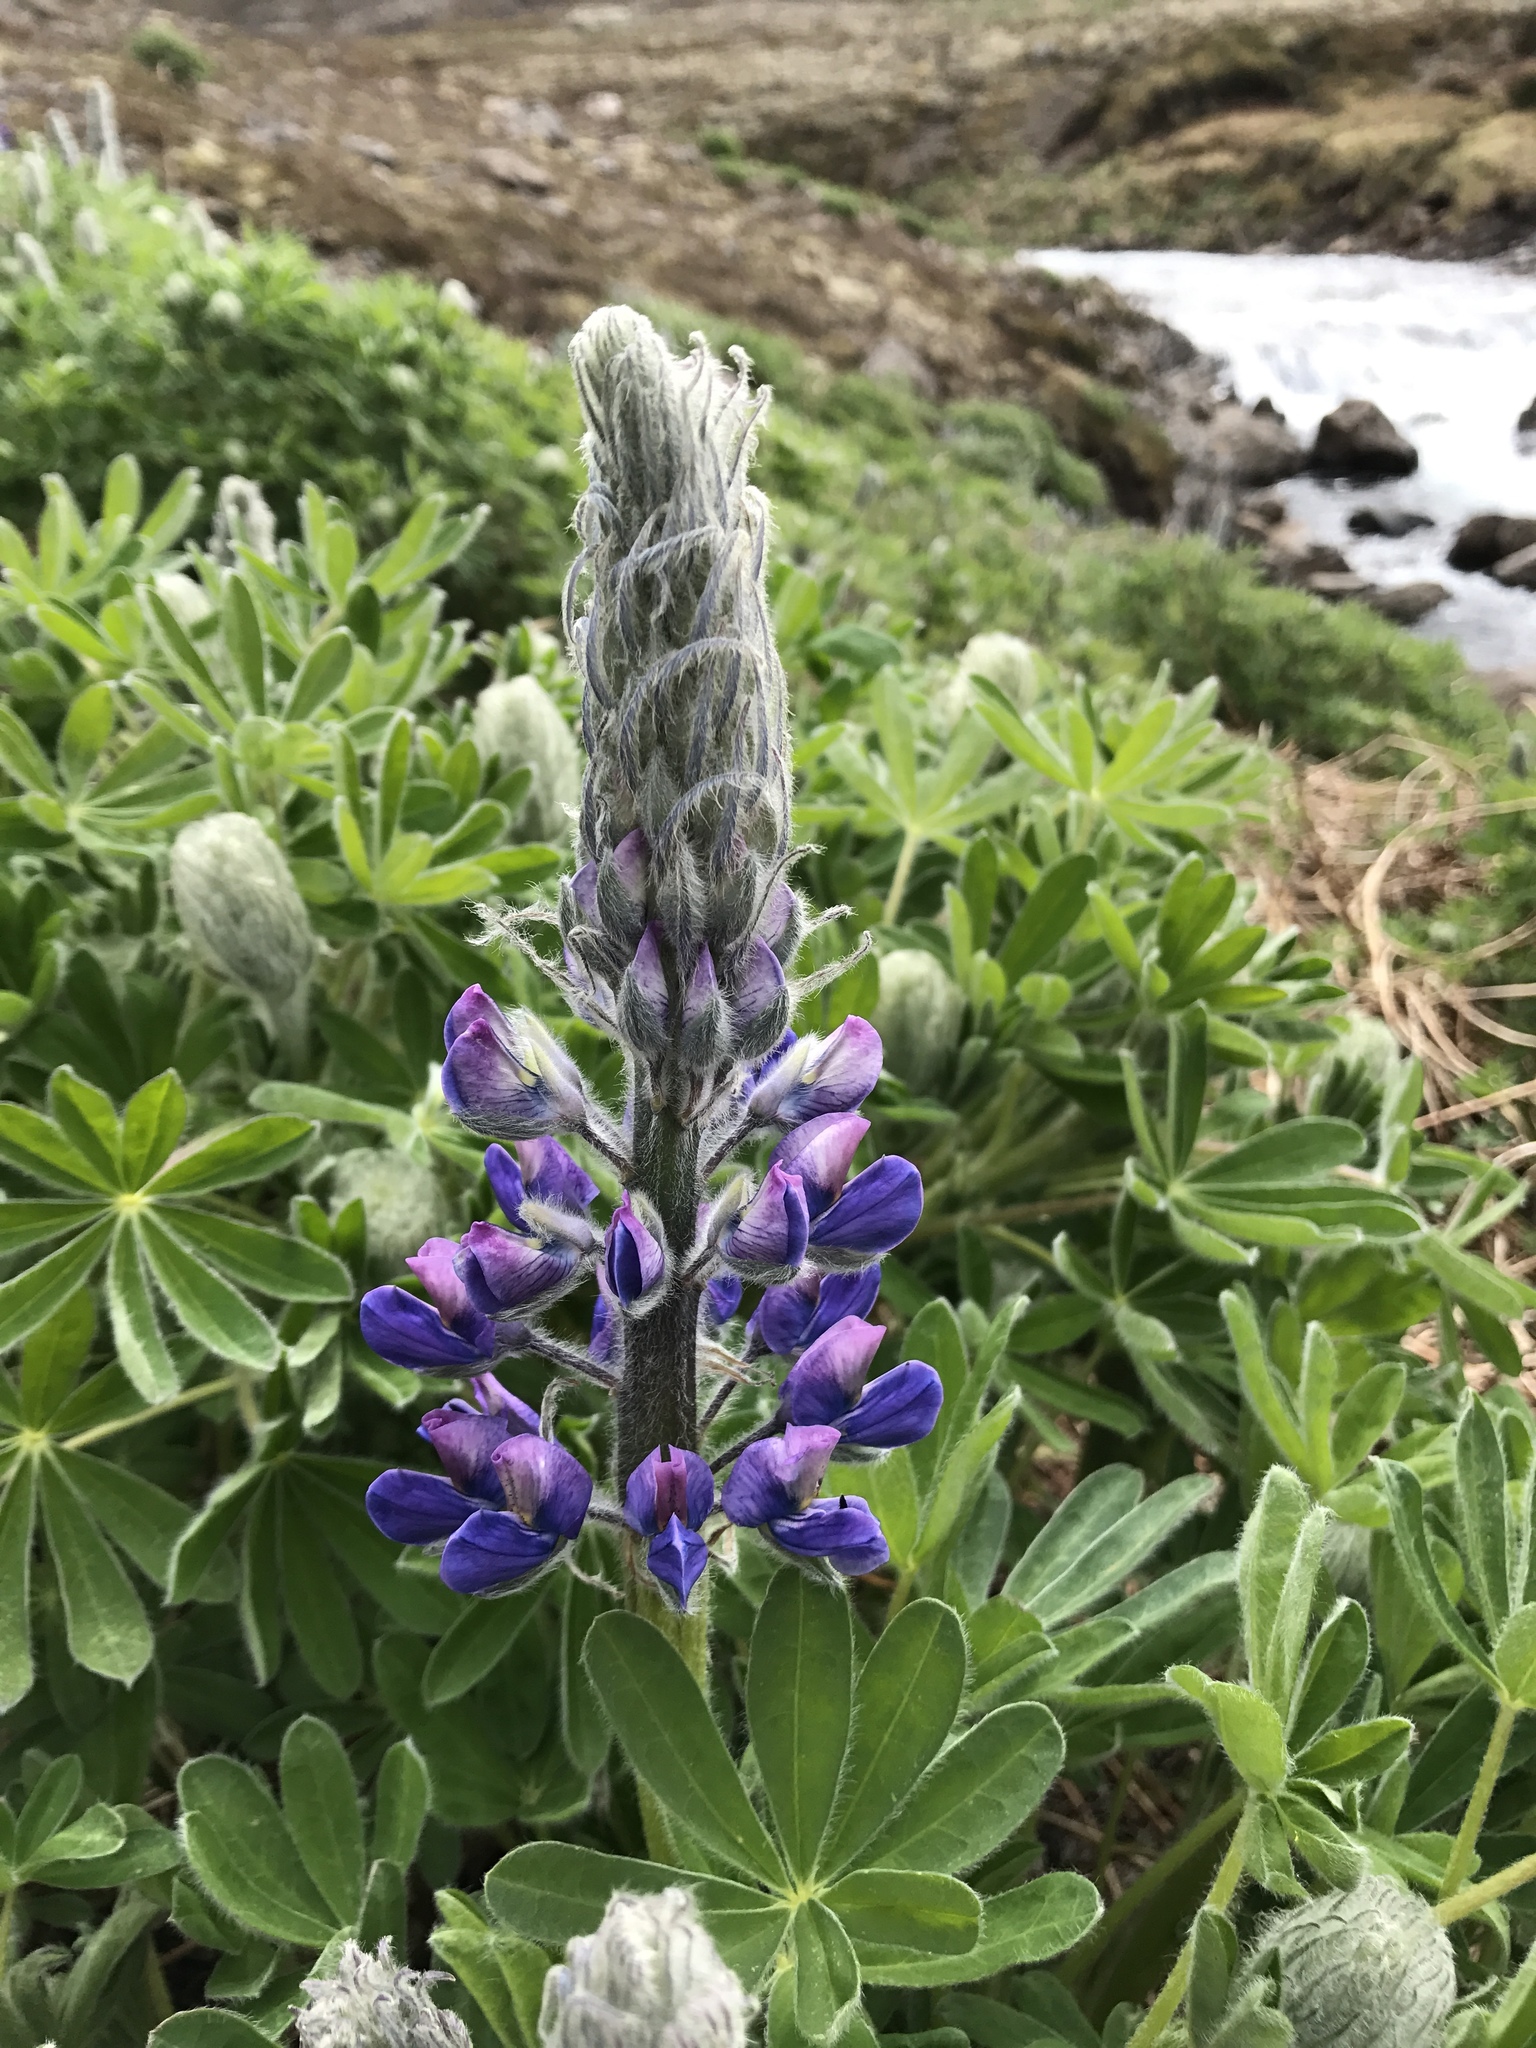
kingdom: Plantae
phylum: Tracheophyta
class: Magnoliopsida
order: Fabales
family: Fabaceae
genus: Lupinus
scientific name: Lupinus nootkatensis
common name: Nootka lupine
